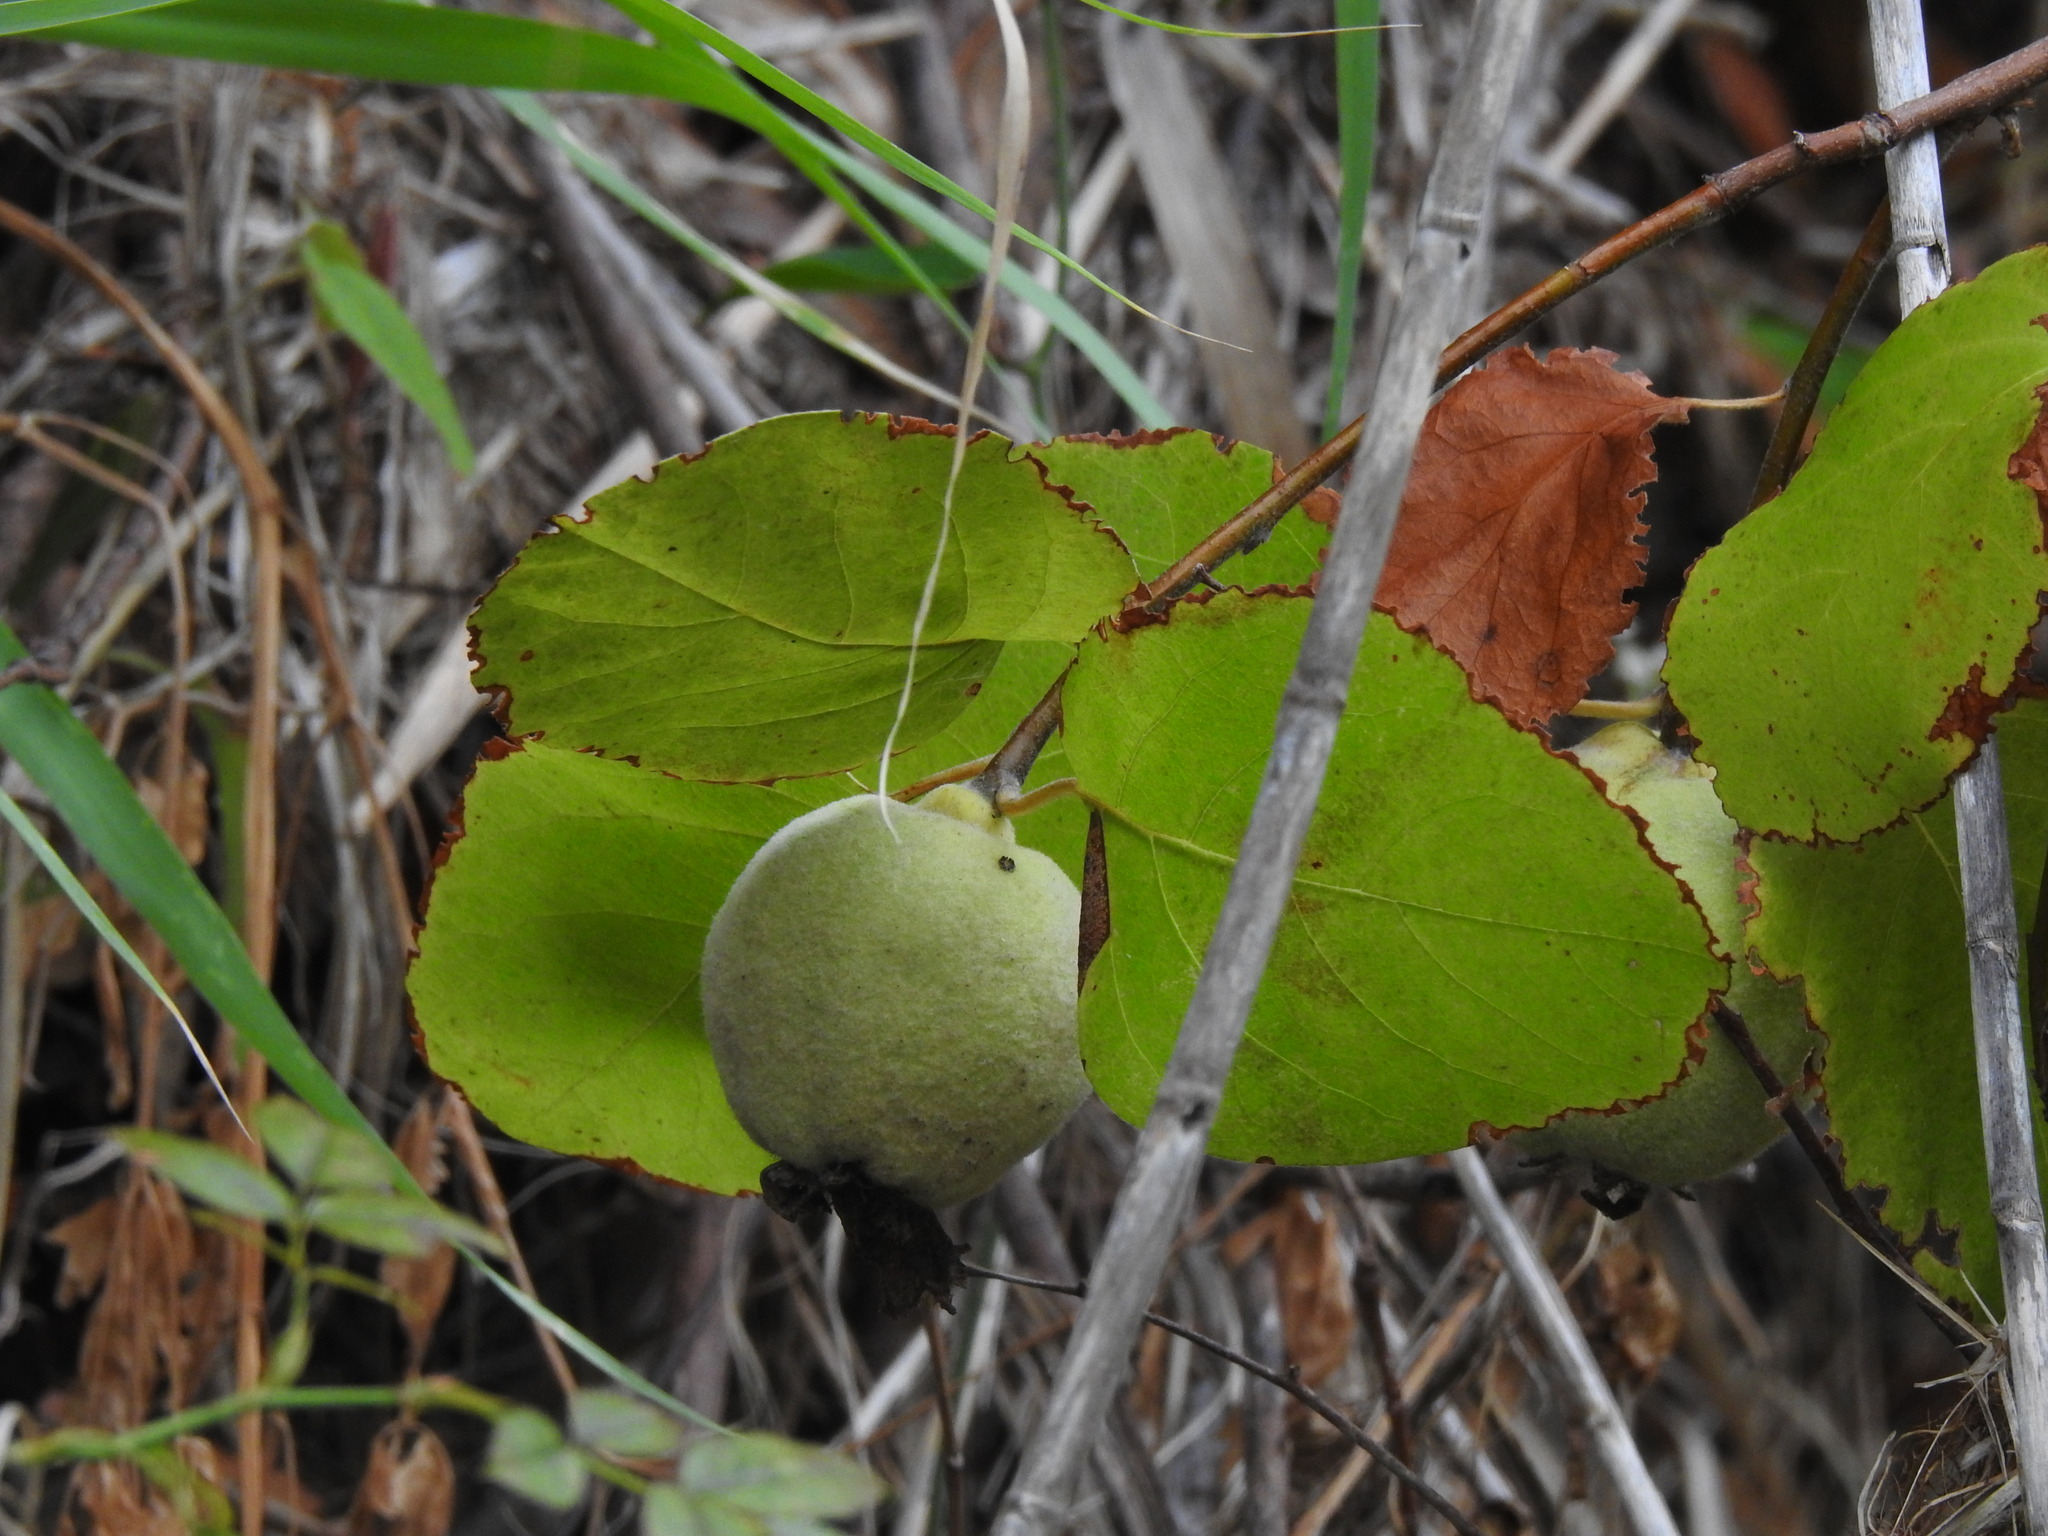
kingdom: Plantae
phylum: Tracheophyta
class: Magnoliopsida
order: Rosales
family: Rosaceae
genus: Cydonia
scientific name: Cydonia oblonga
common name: Quince
